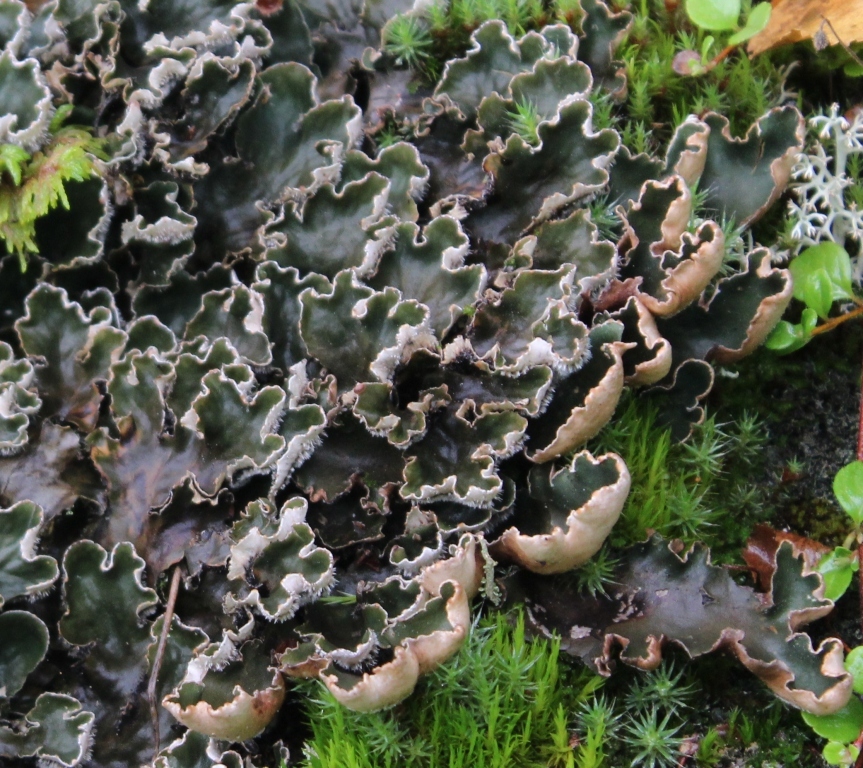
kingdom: Fungi
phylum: Ascomycota
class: Lecanoromycetes
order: Peltigerales
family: Peltigeraceae
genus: Peltigera
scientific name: Peltigera malacea
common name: Matt felt lichen
